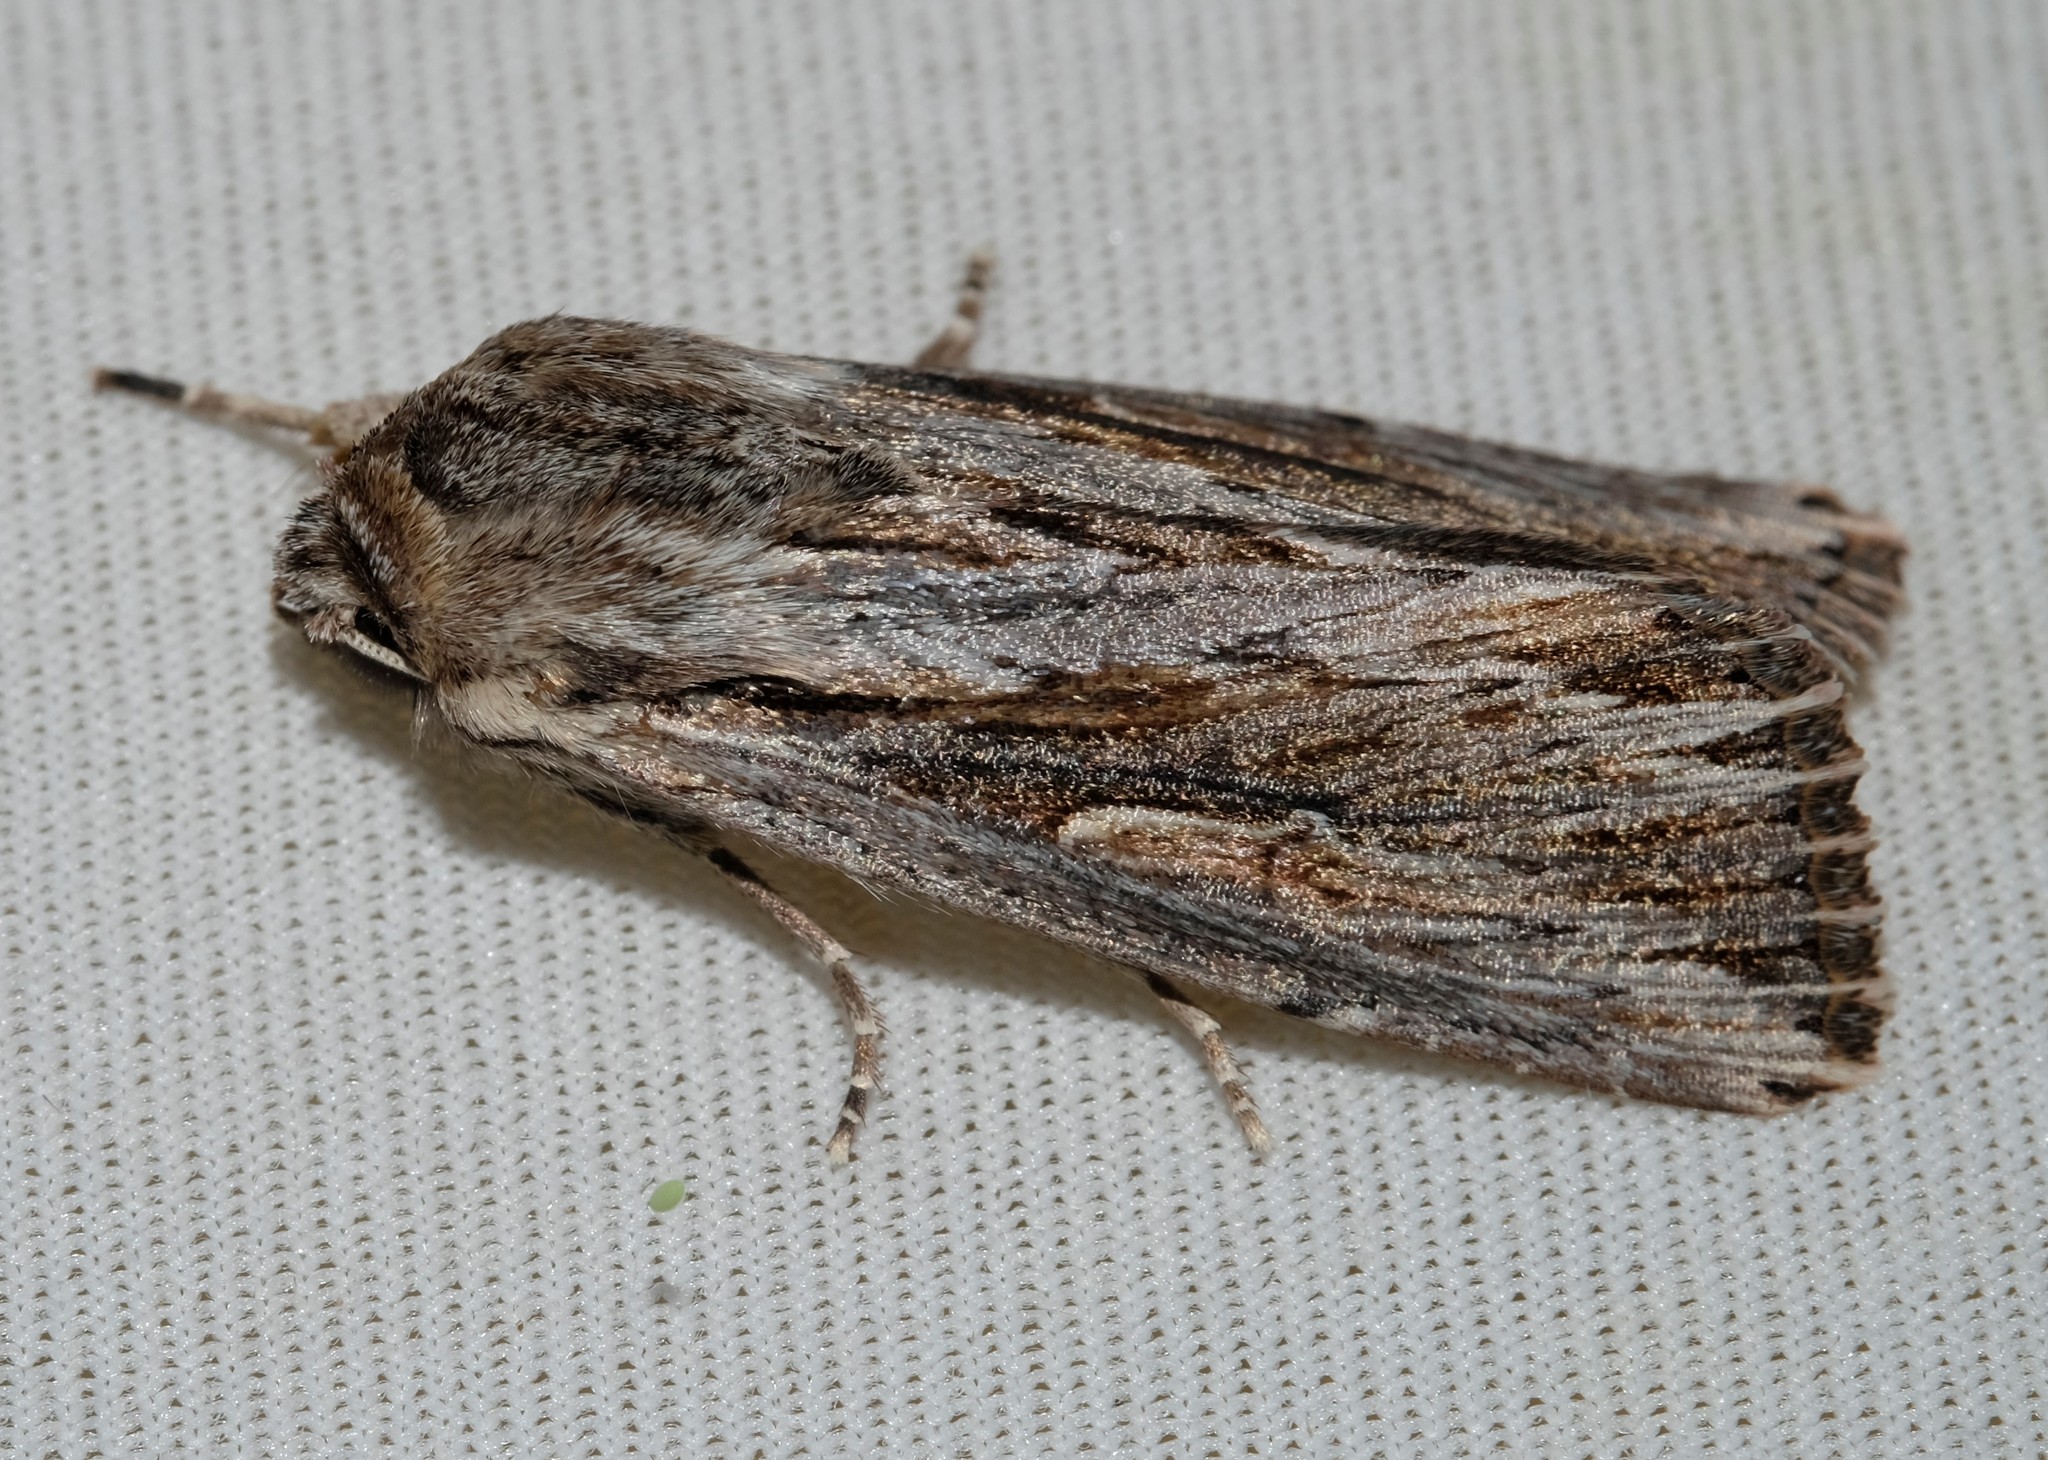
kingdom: Animalia
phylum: Arthropoda
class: Insecta
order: Lepidoptera
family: Noctuidae
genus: Persectania
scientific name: Persectania ewingii
